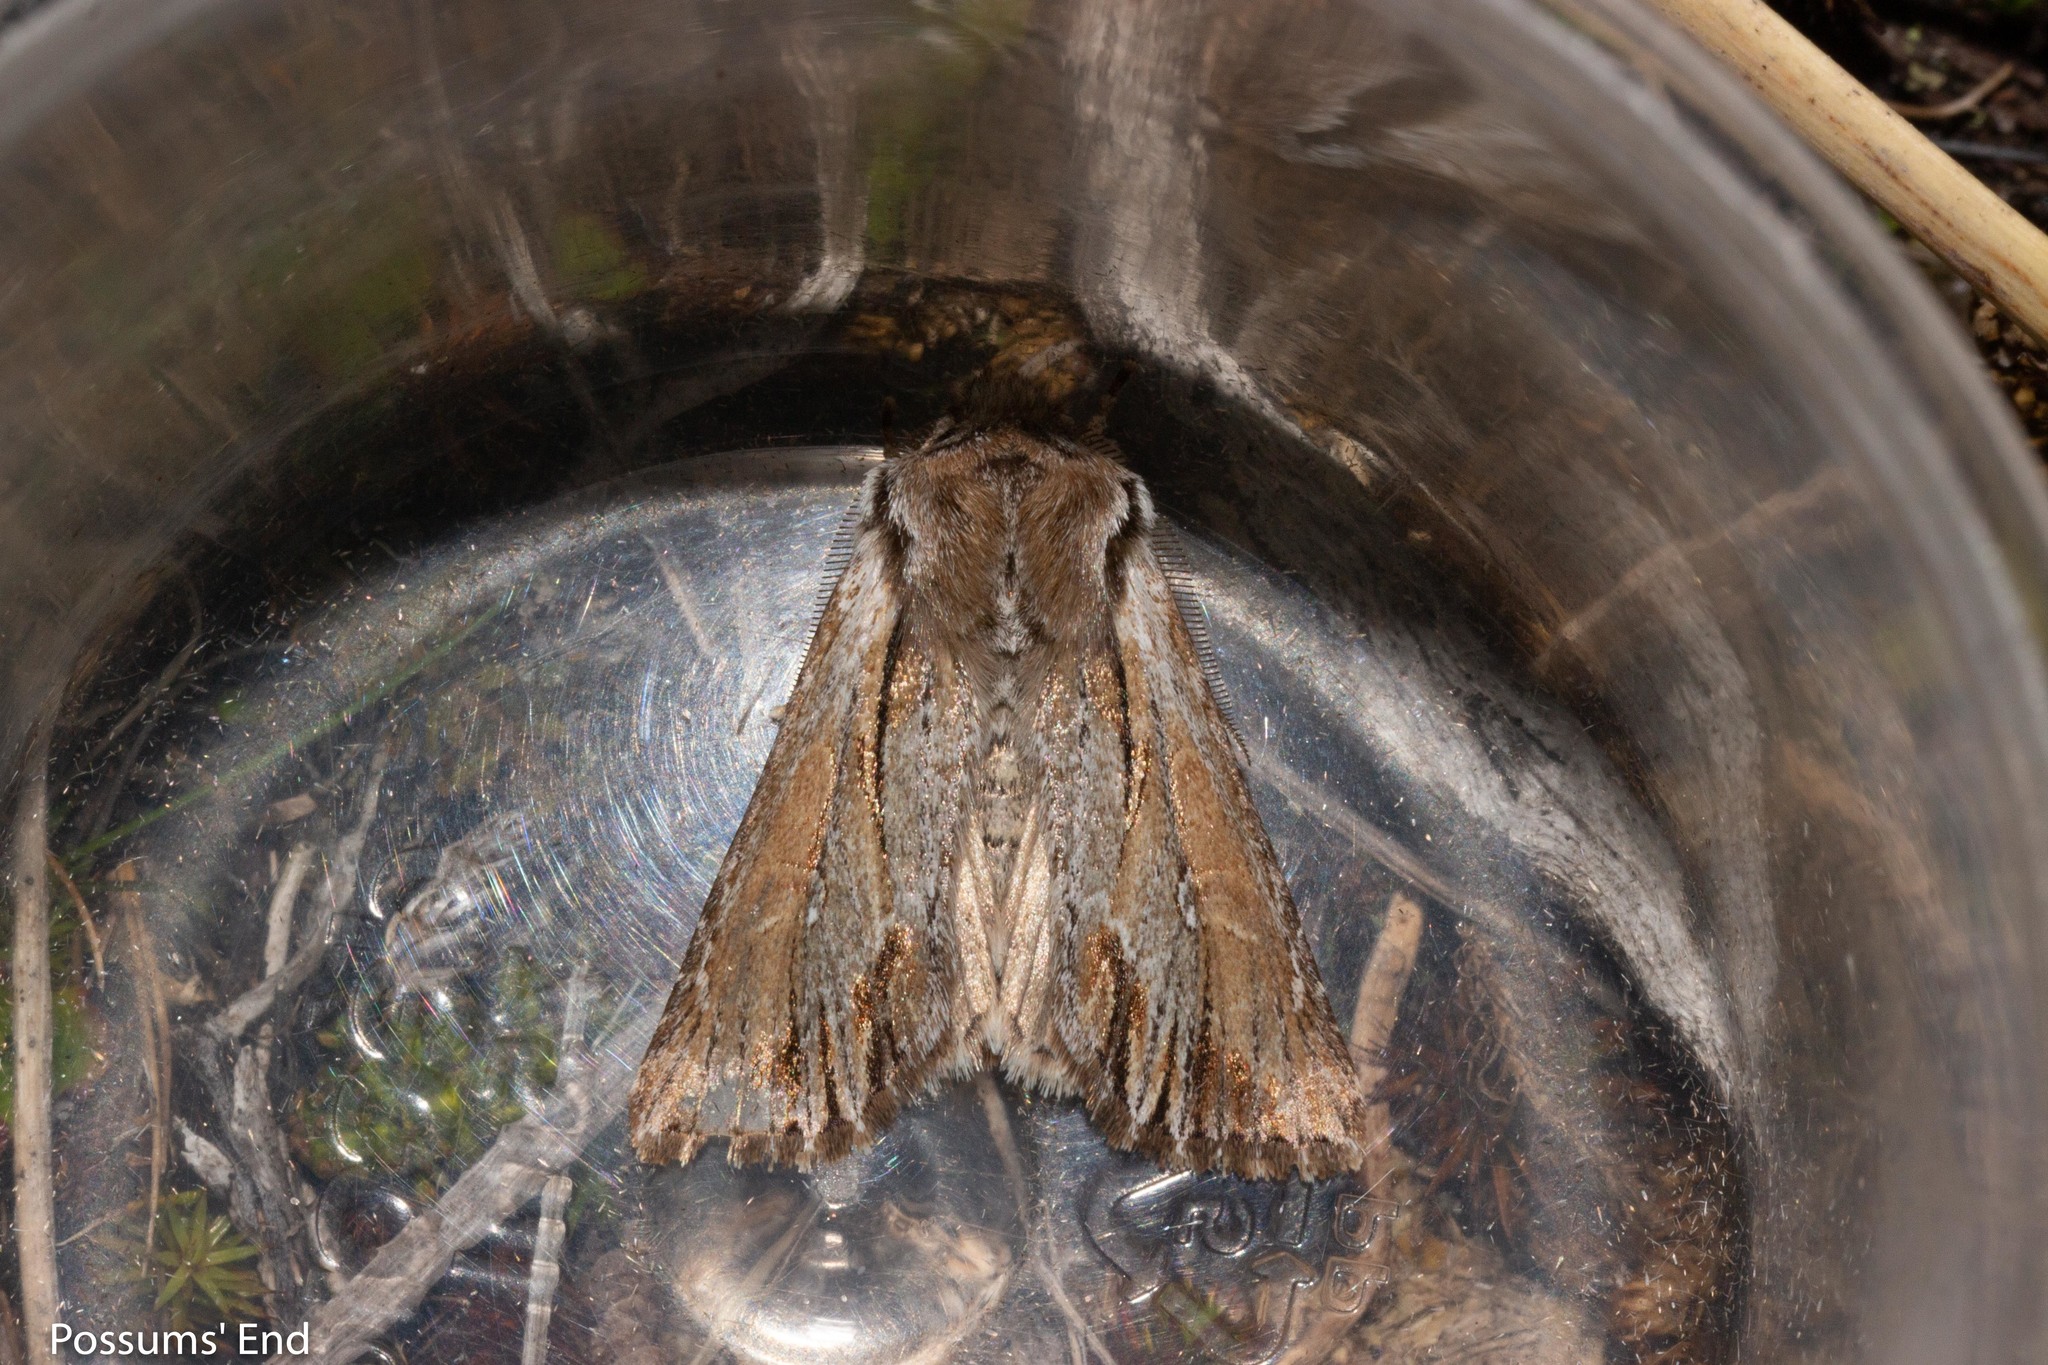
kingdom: Animalia
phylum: Arthropoda
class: Insecta
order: Lepidoptera
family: Noctuidae
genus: Ichneutica
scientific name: Ichneutica
